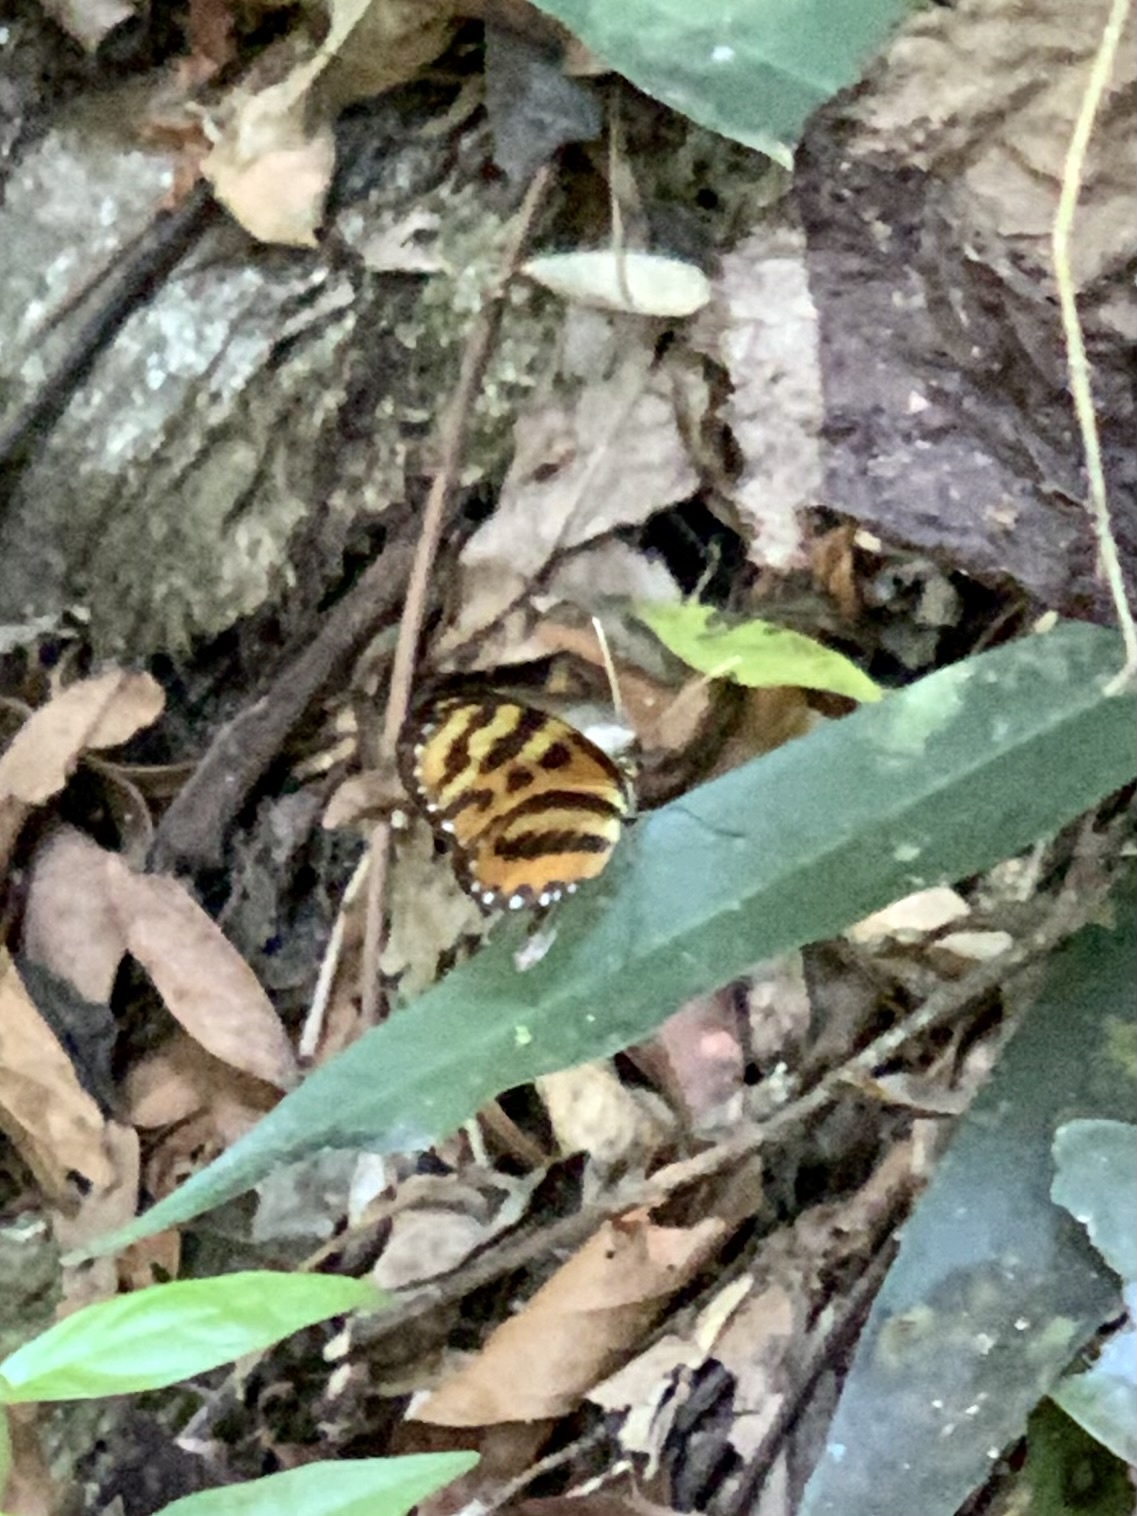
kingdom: Animalia
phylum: Arthropoda
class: Insecta
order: Lepidoptera
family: Nymphalidae
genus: Mechanitis
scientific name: Mechanitis lysimnia
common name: Lysimnia tigerwing
